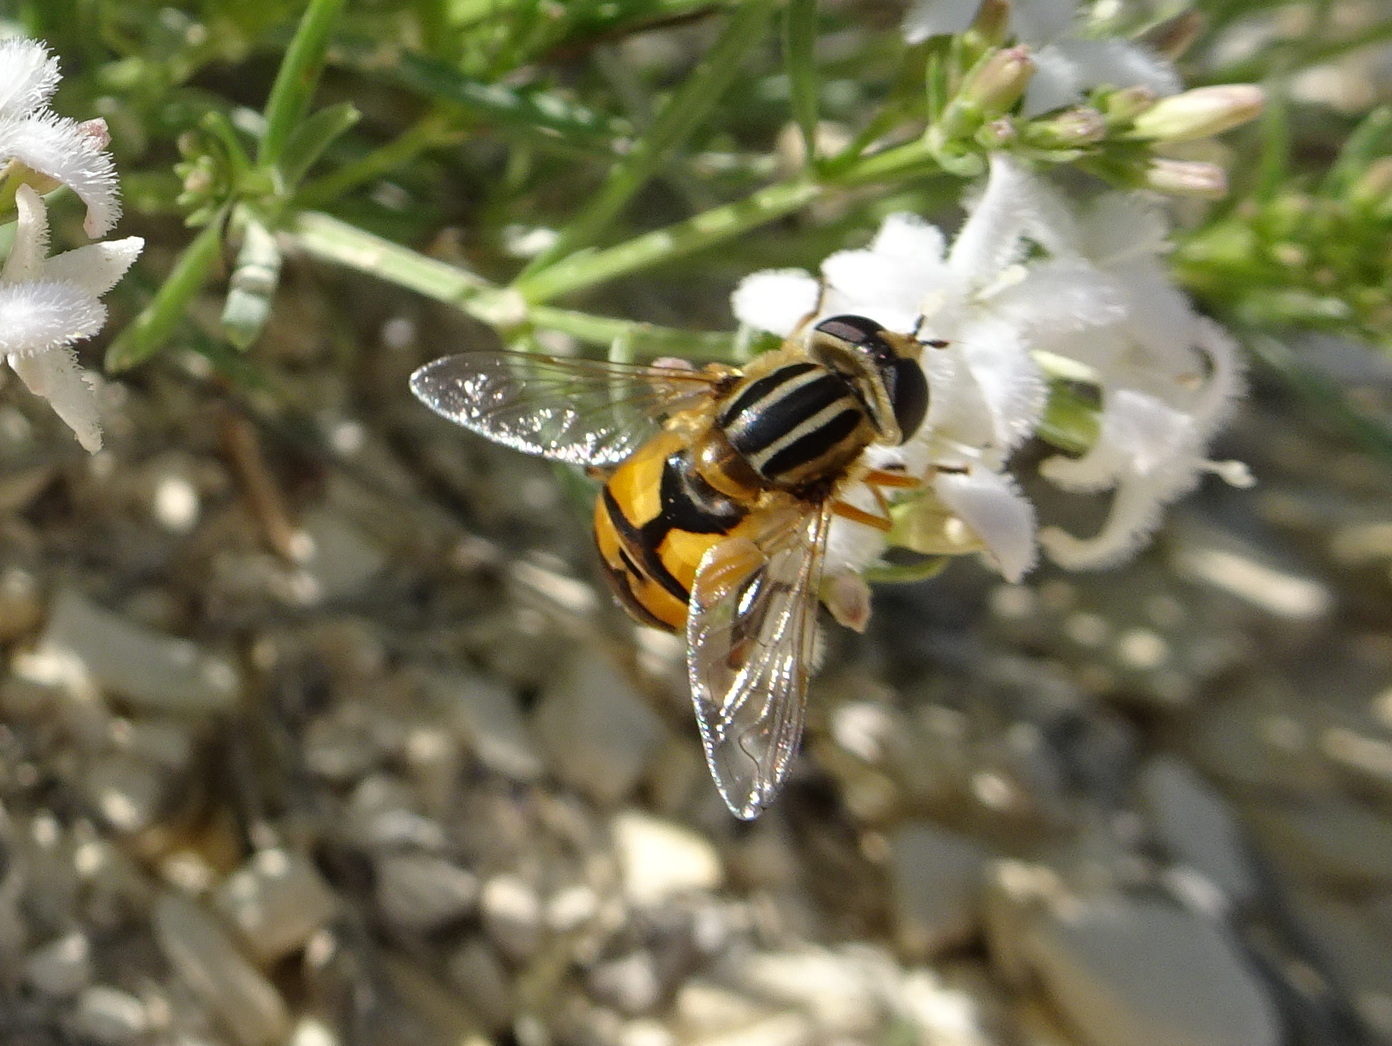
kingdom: Animalia
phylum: Arthropoda
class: Insecta
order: Diptera
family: Syrphidae
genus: Helophilus
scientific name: Helophilus latifrons
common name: Broad-headed marsh fly
